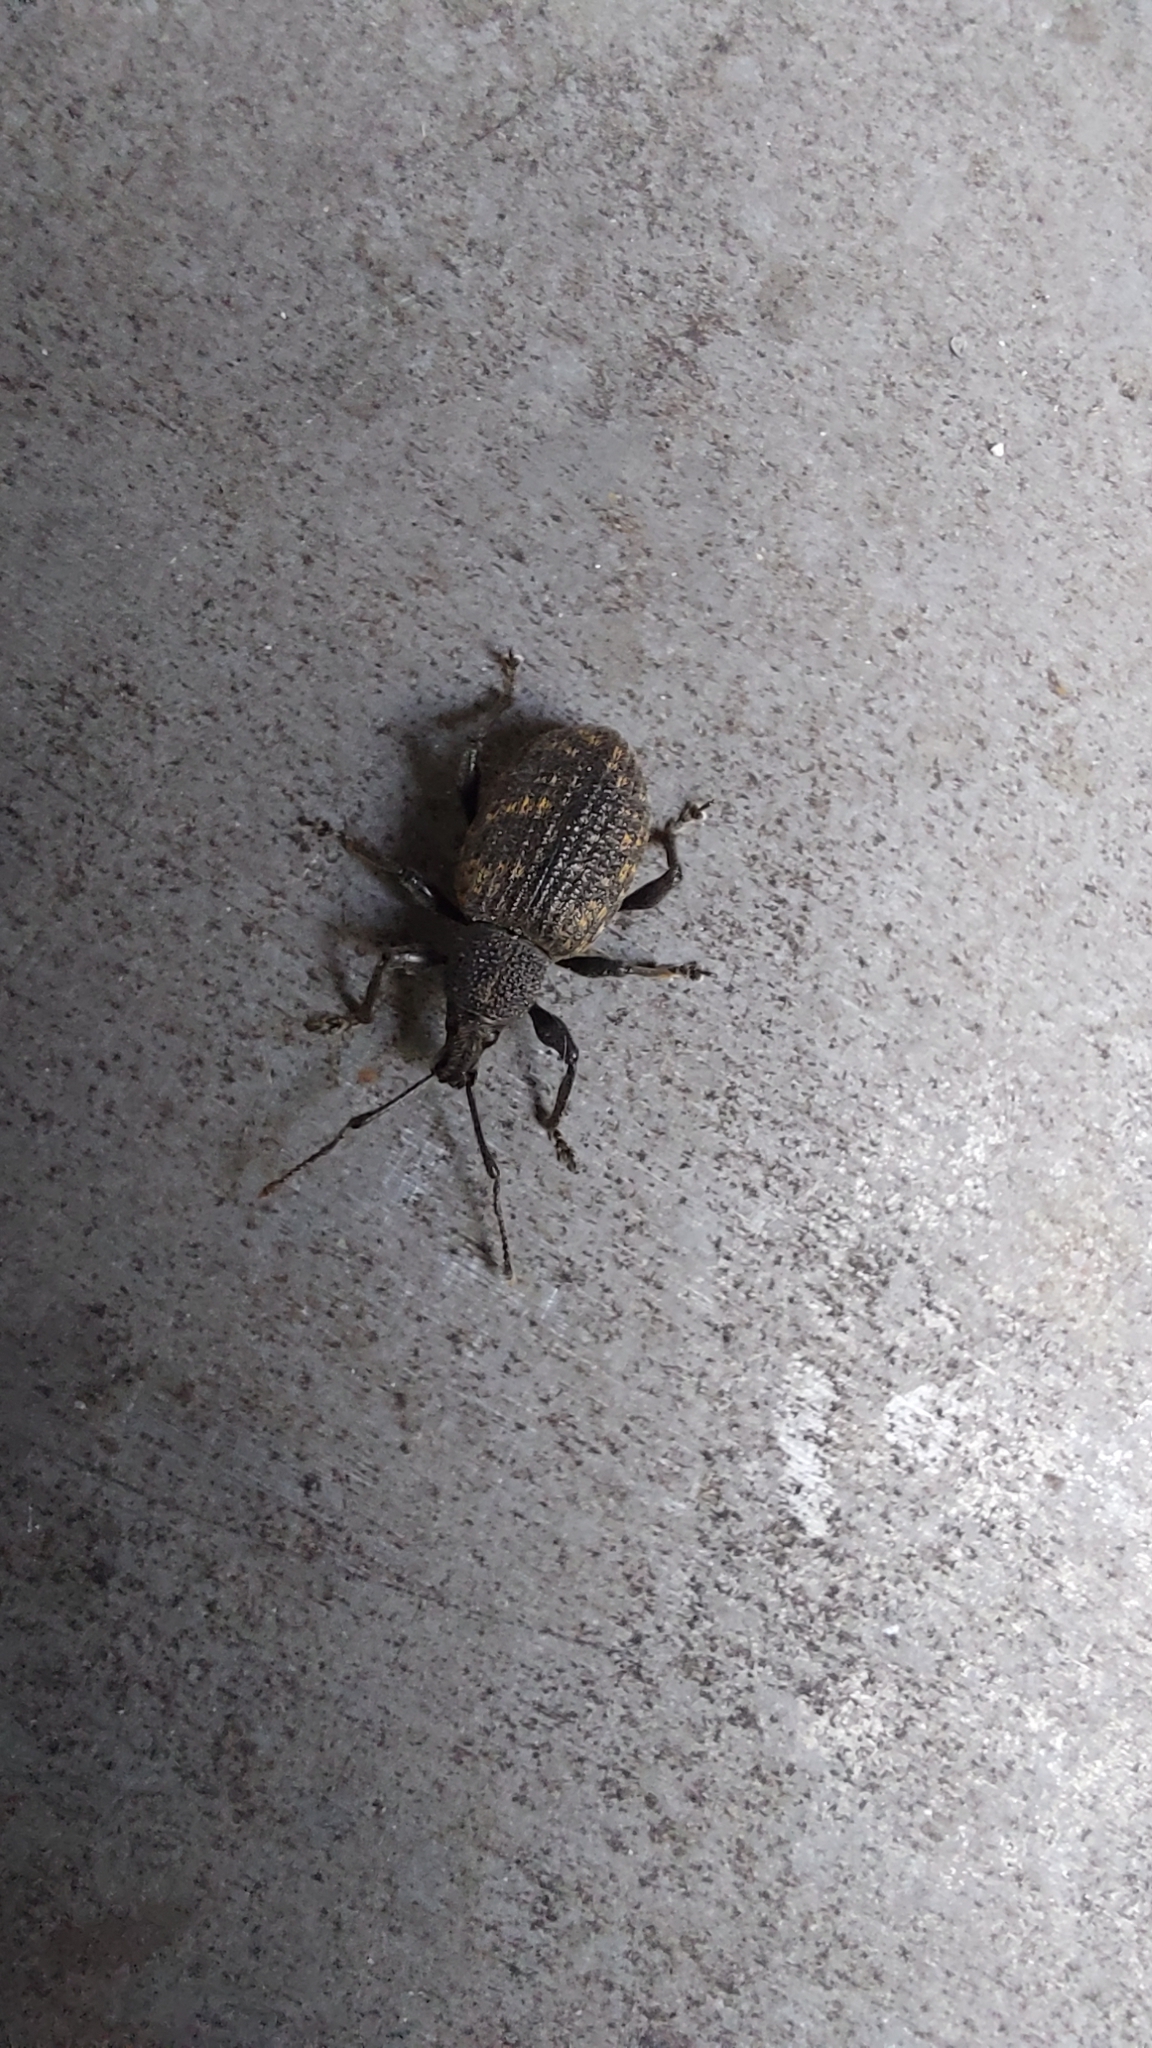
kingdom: Animalia
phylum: Arthropoda
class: Insecta
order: Coleoptera
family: Curculionidae
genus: Otiorhynchus
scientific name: Otiorhynchus sulcatus
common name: Black vine weevil
